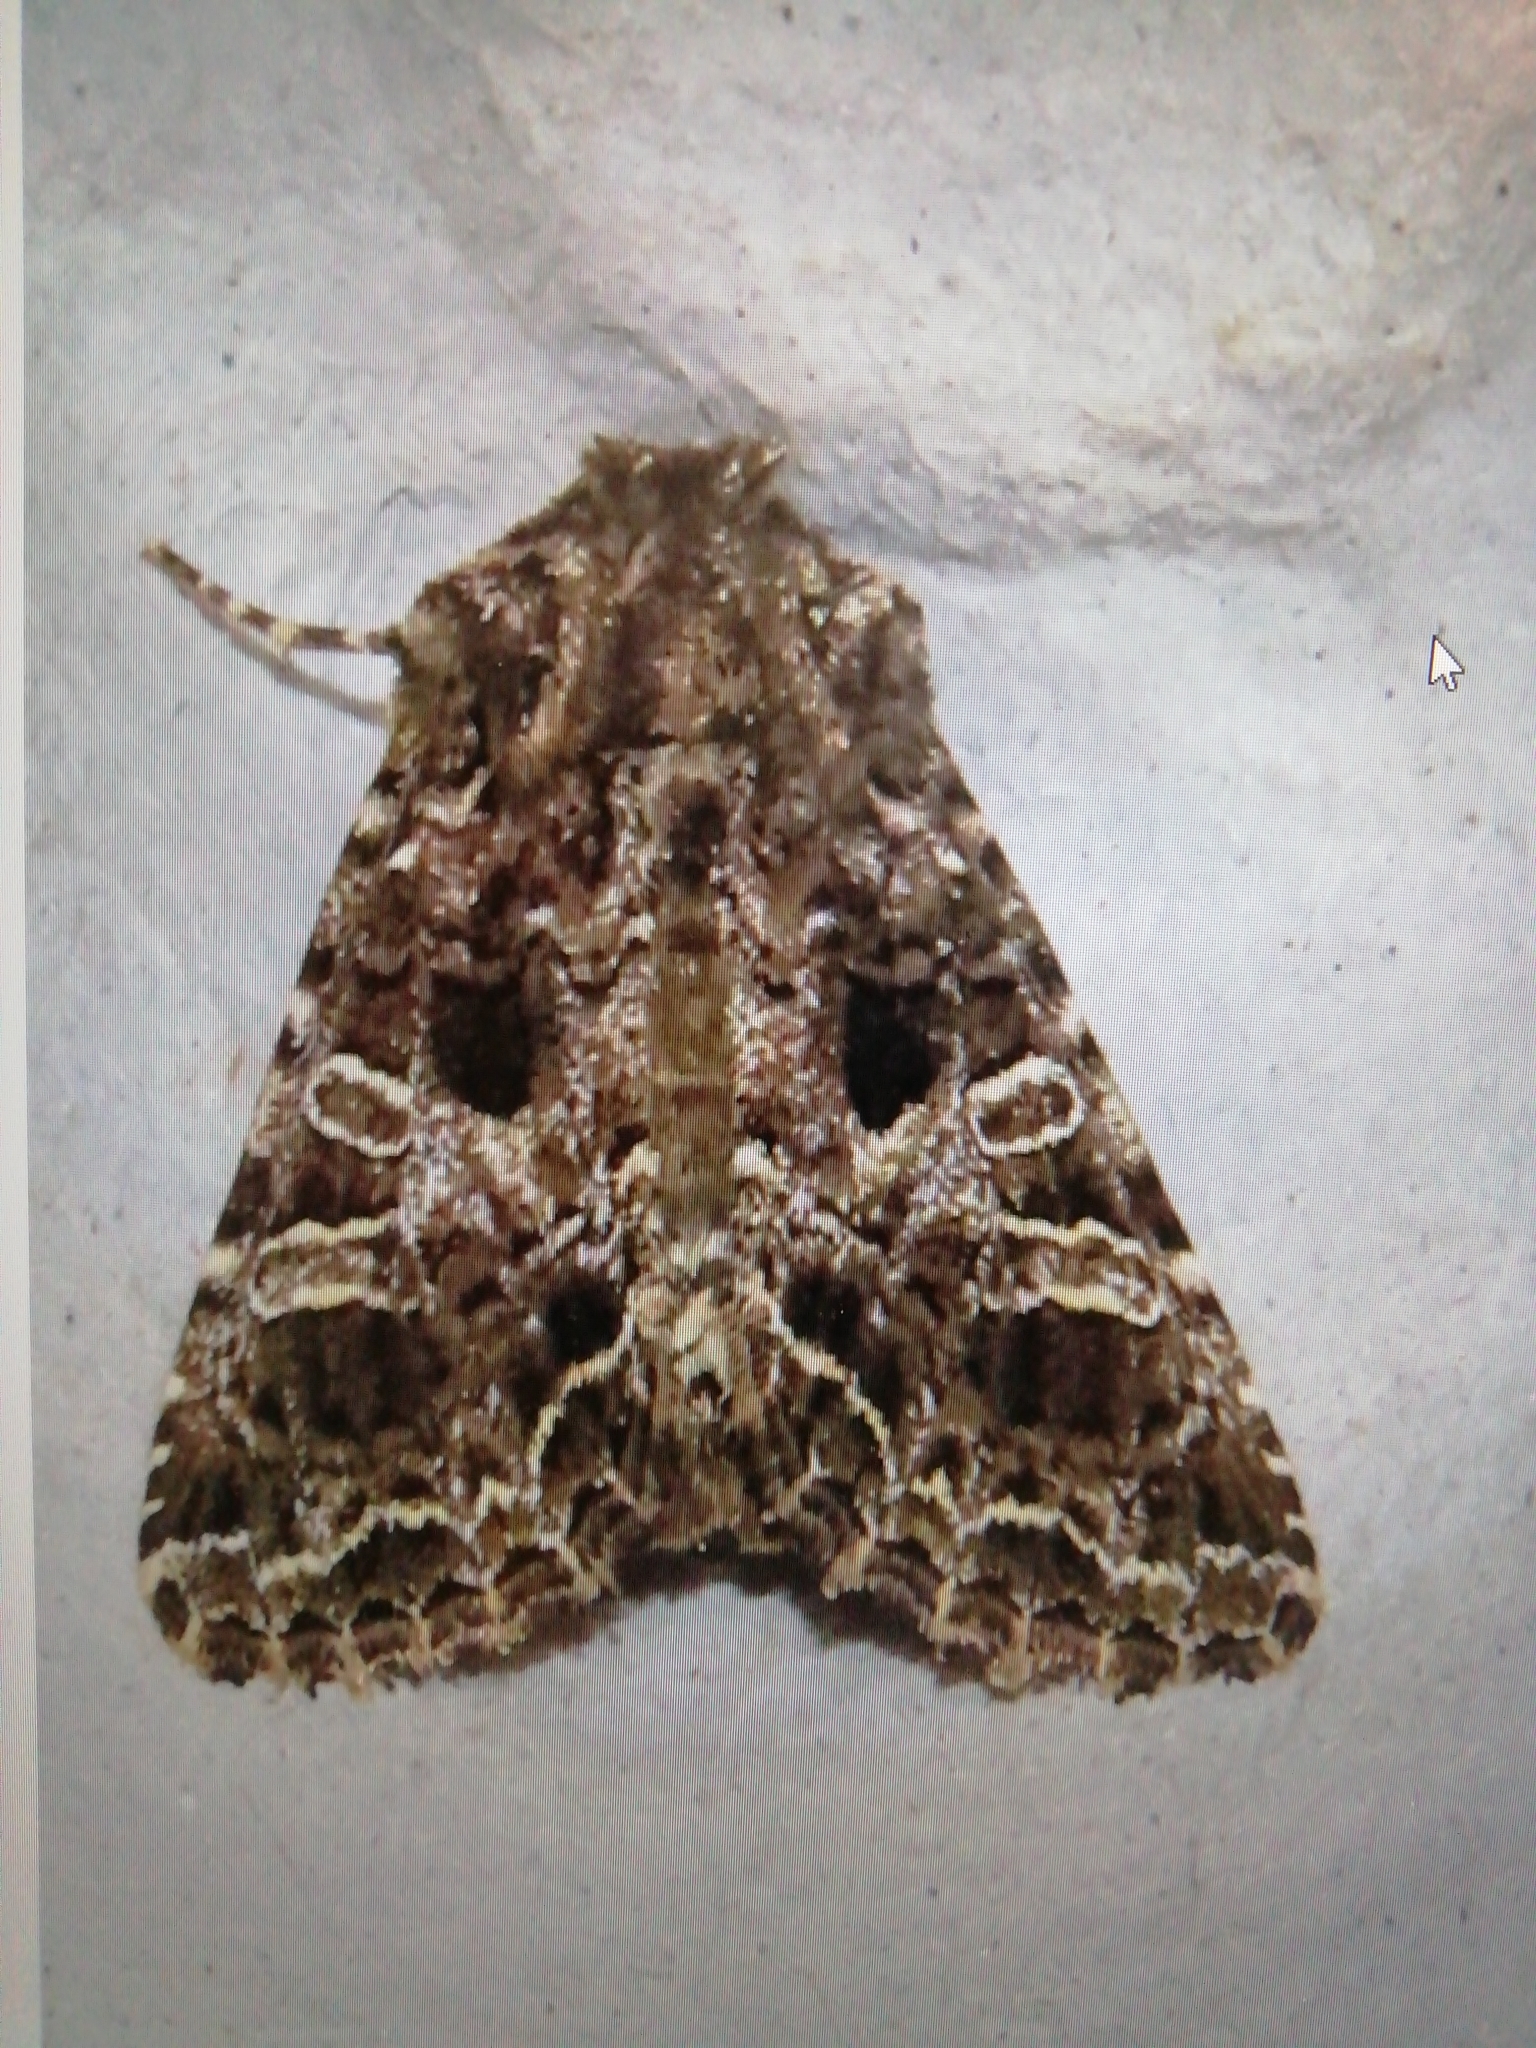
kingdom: Animalia
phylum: Arthropoda
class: Insecta
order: Lepidoptera
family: Noctuidae
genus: Hadena
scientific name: Hadena bicruris
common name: Lychnis
